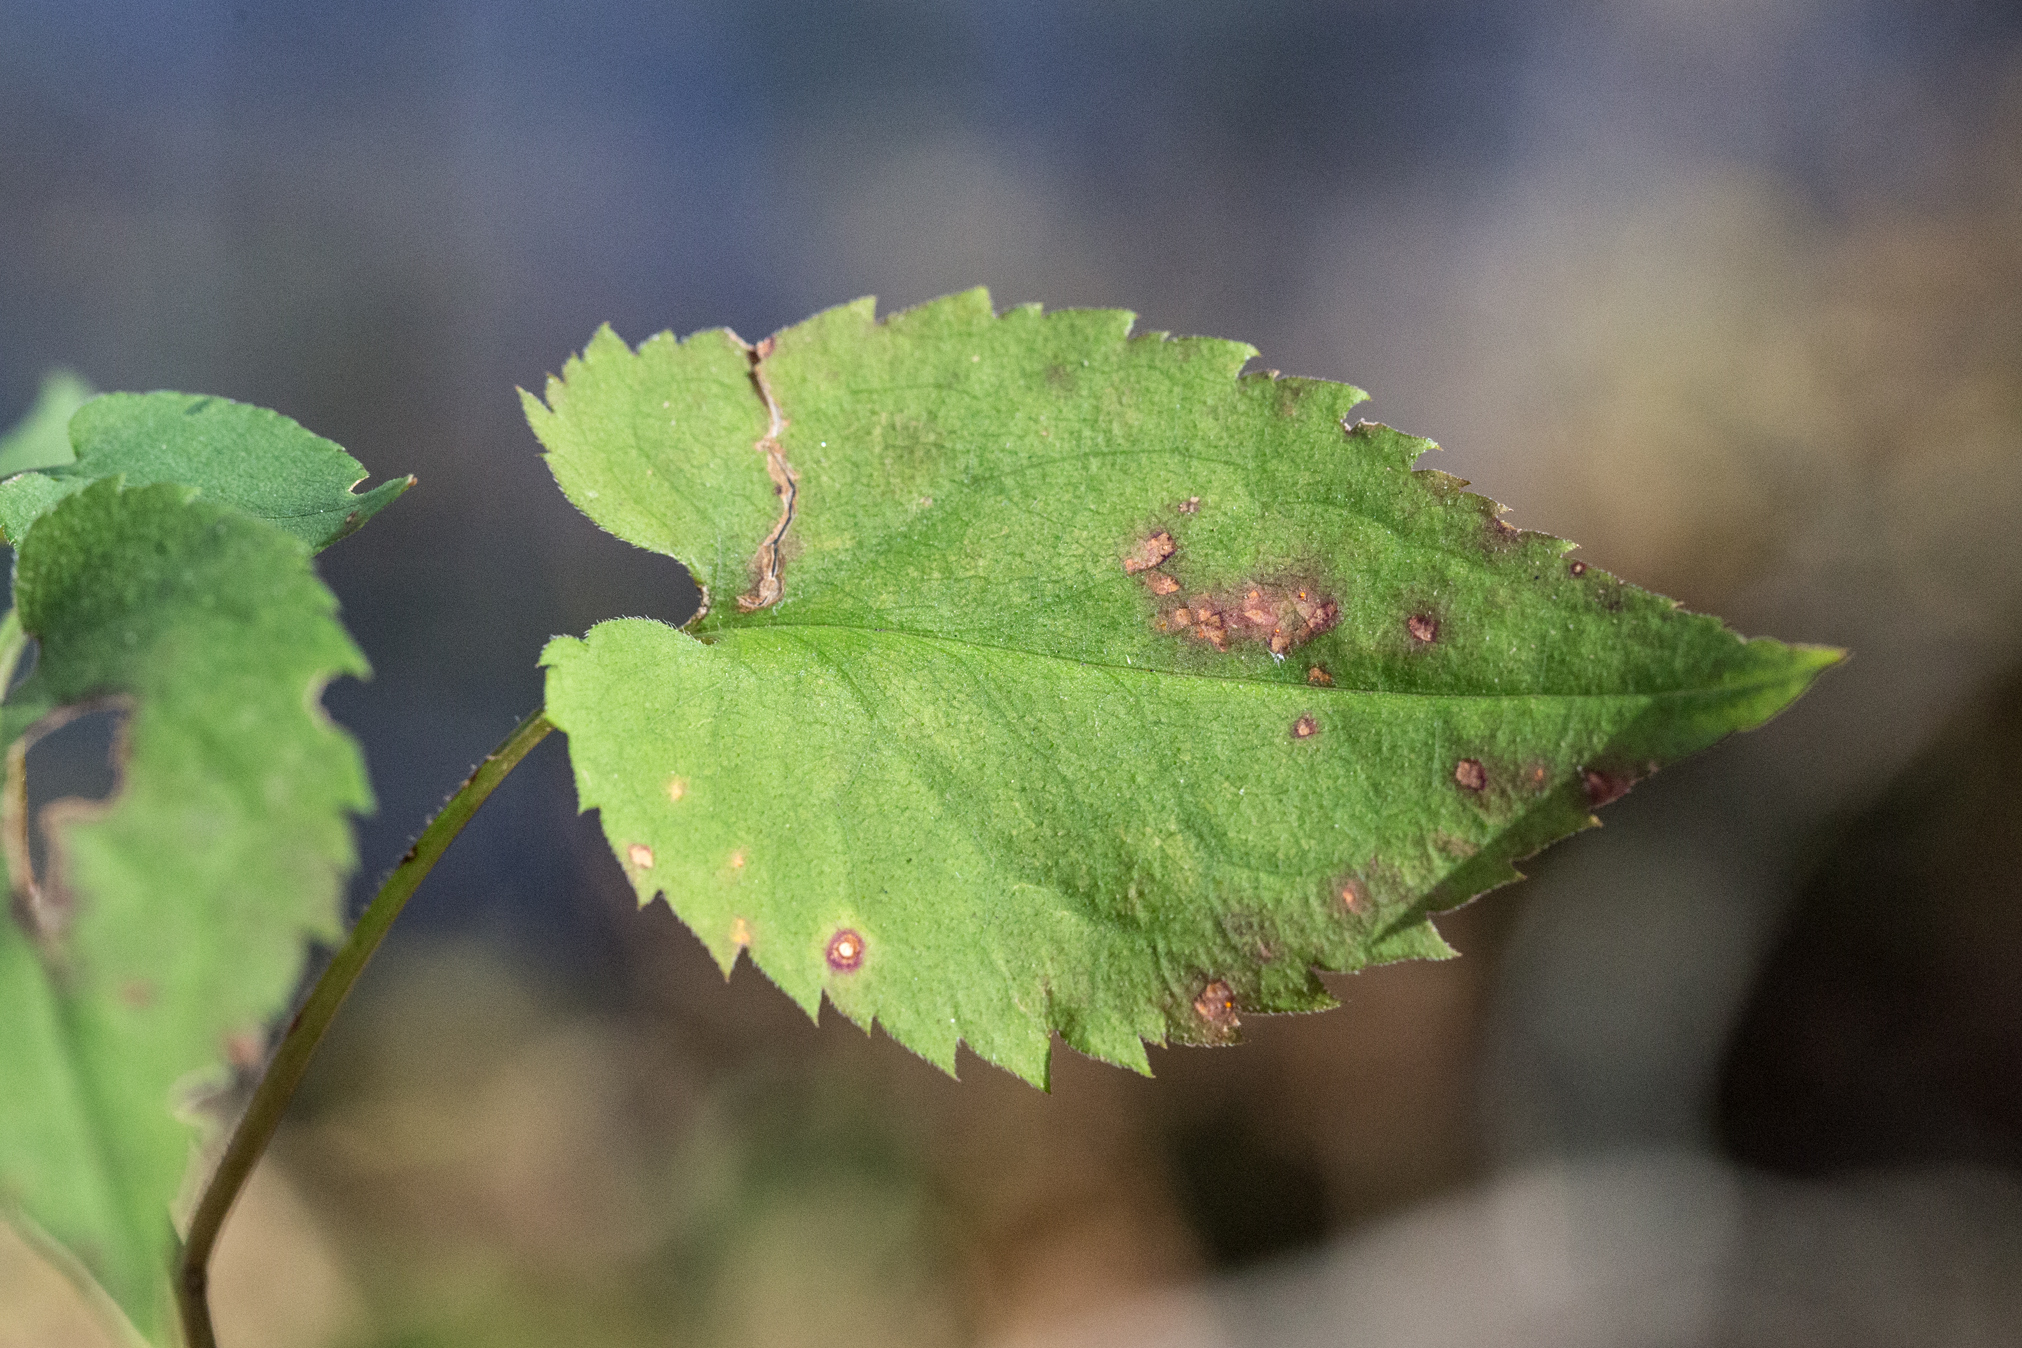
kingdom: Plantae
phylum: Tracheophyta
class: Magnoliopsida
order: Asterales
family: Asteraceae
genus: Symphyotrichum
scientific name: Symphyotrichum cordifolium
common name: Beeweed
